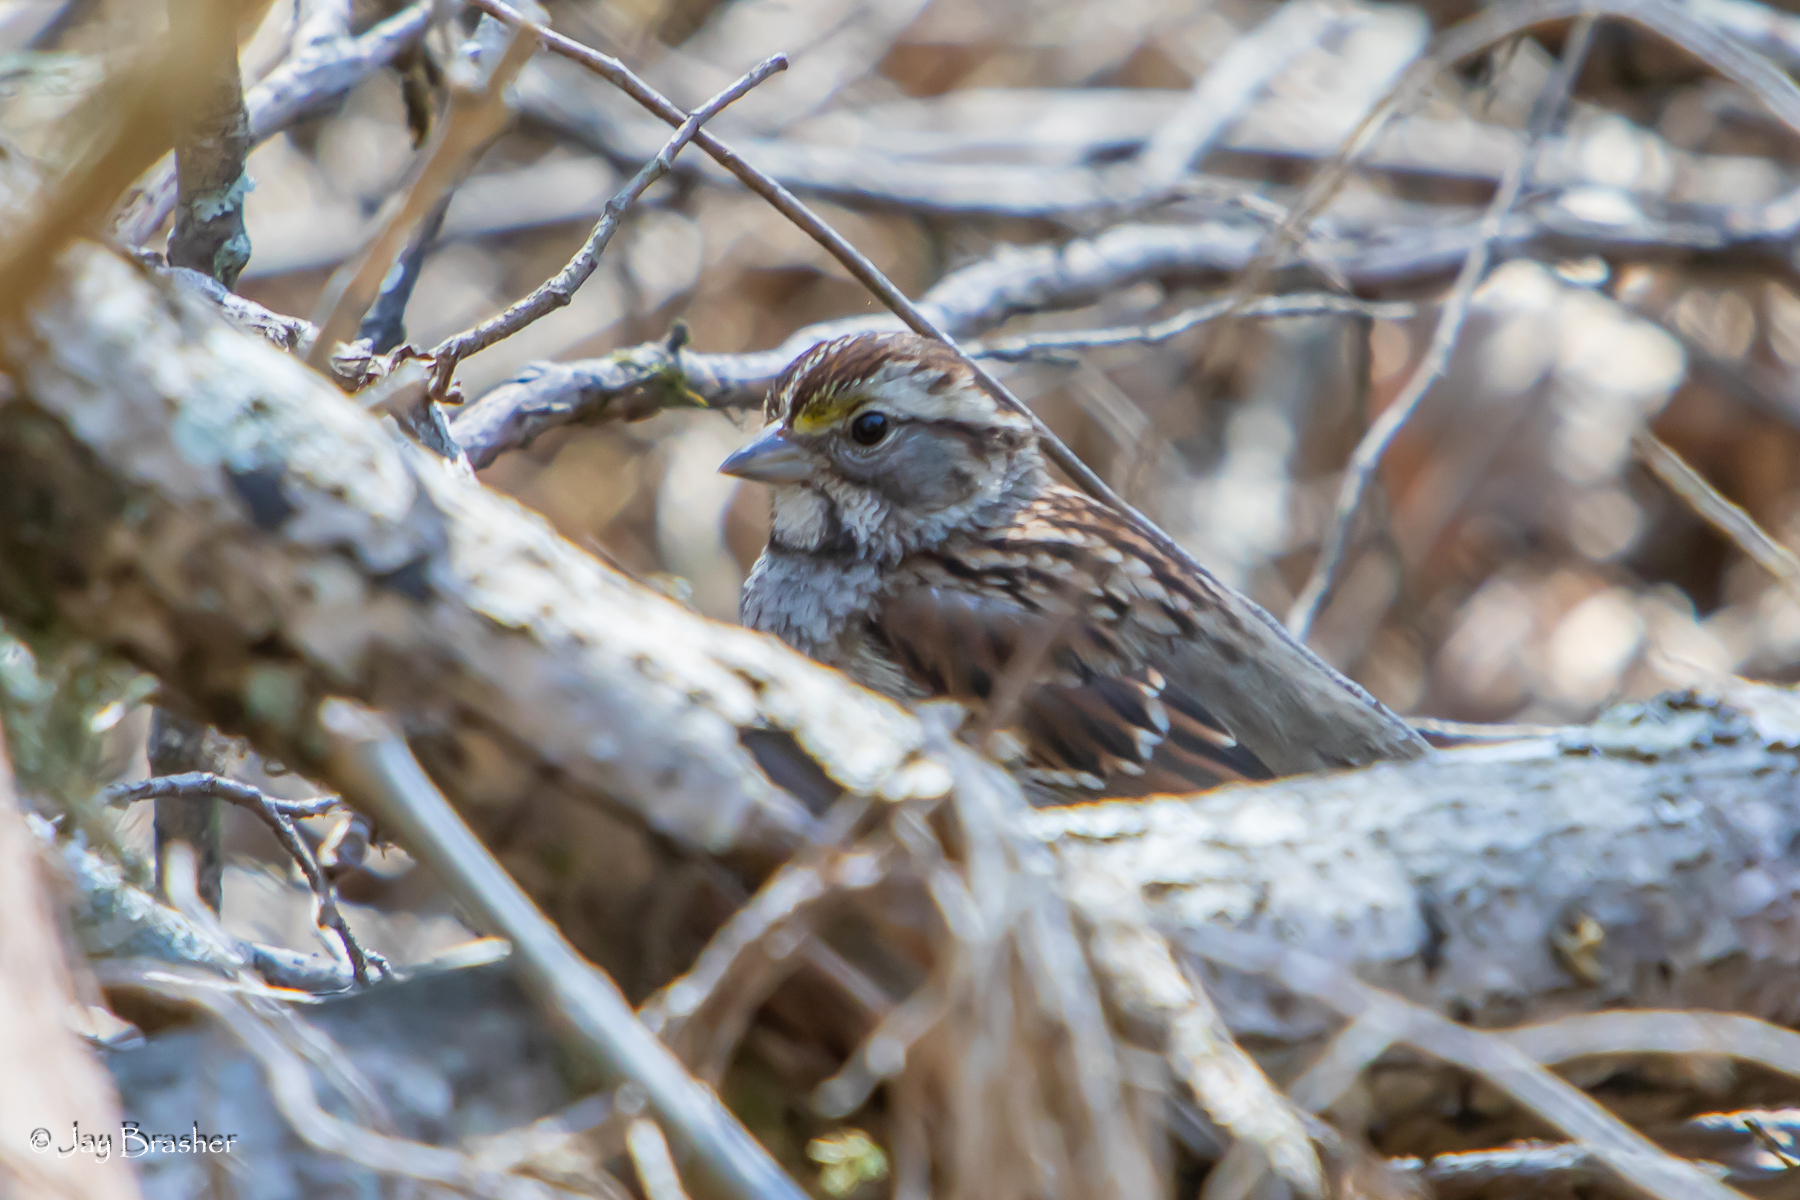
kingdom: Animalia
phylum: Chordata
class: Aves
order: Passeriformes
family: Passerellidae
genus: Zonotrichia
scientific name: Zonotrichia albicollis
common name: White-throated sparrow
